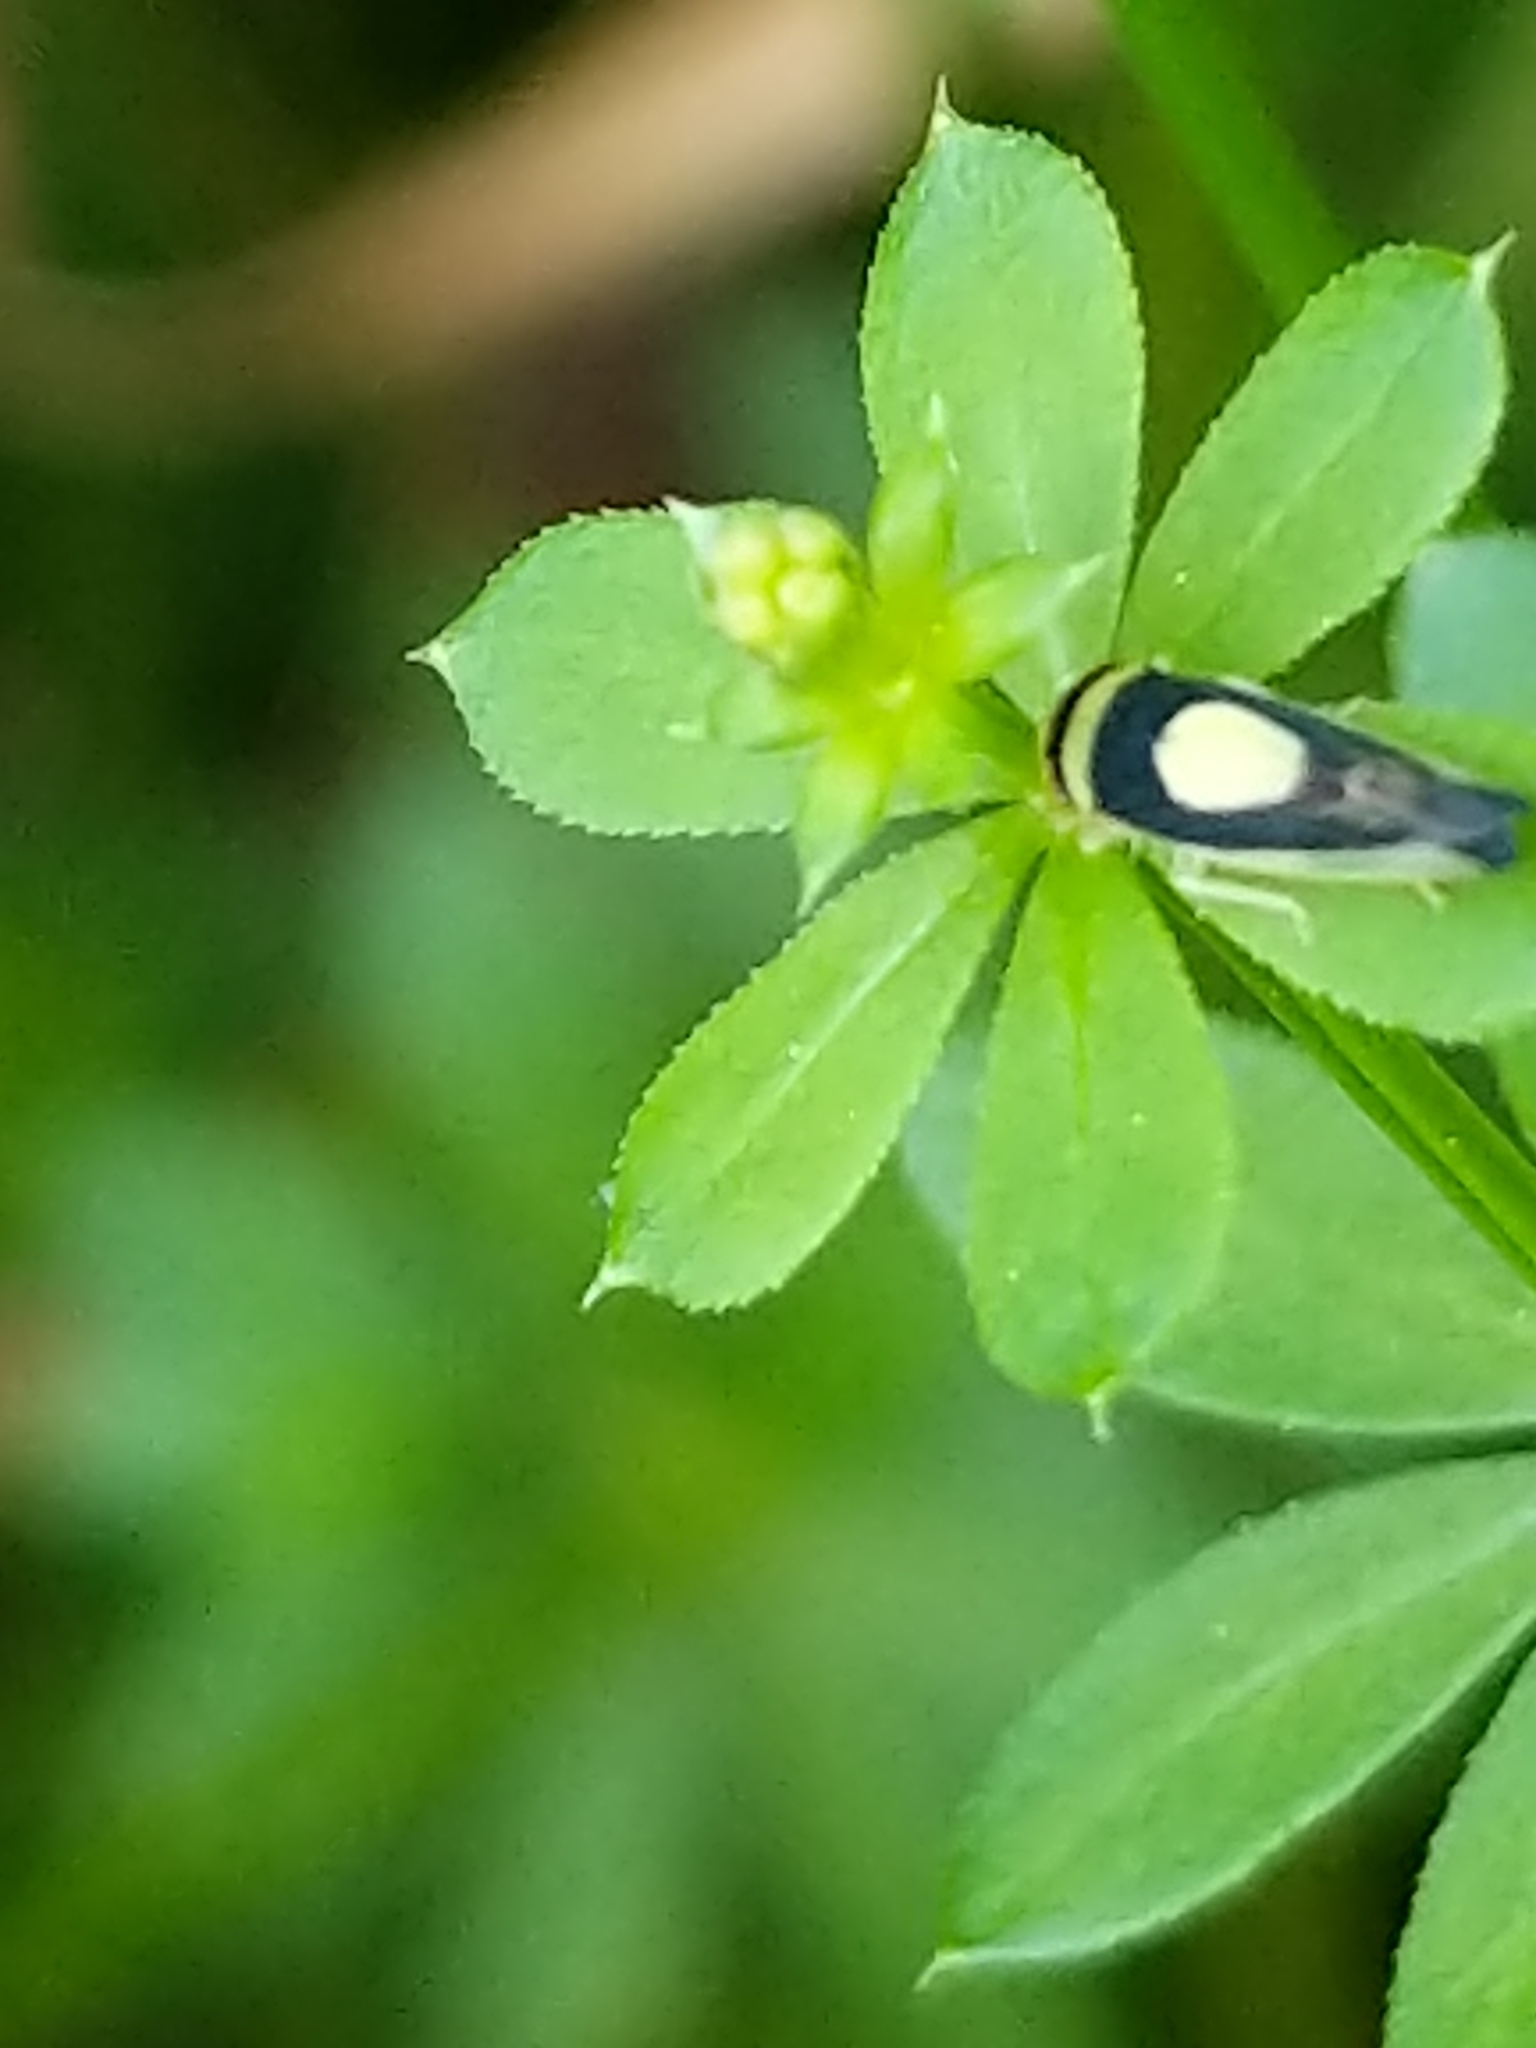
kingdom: Animalia
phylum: Arthropoda
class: Insecta
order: Hemiptera
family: Cicadellidae
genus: Colladonus
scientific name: Colladonus clitellarius
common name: The saddleback leafhopper
